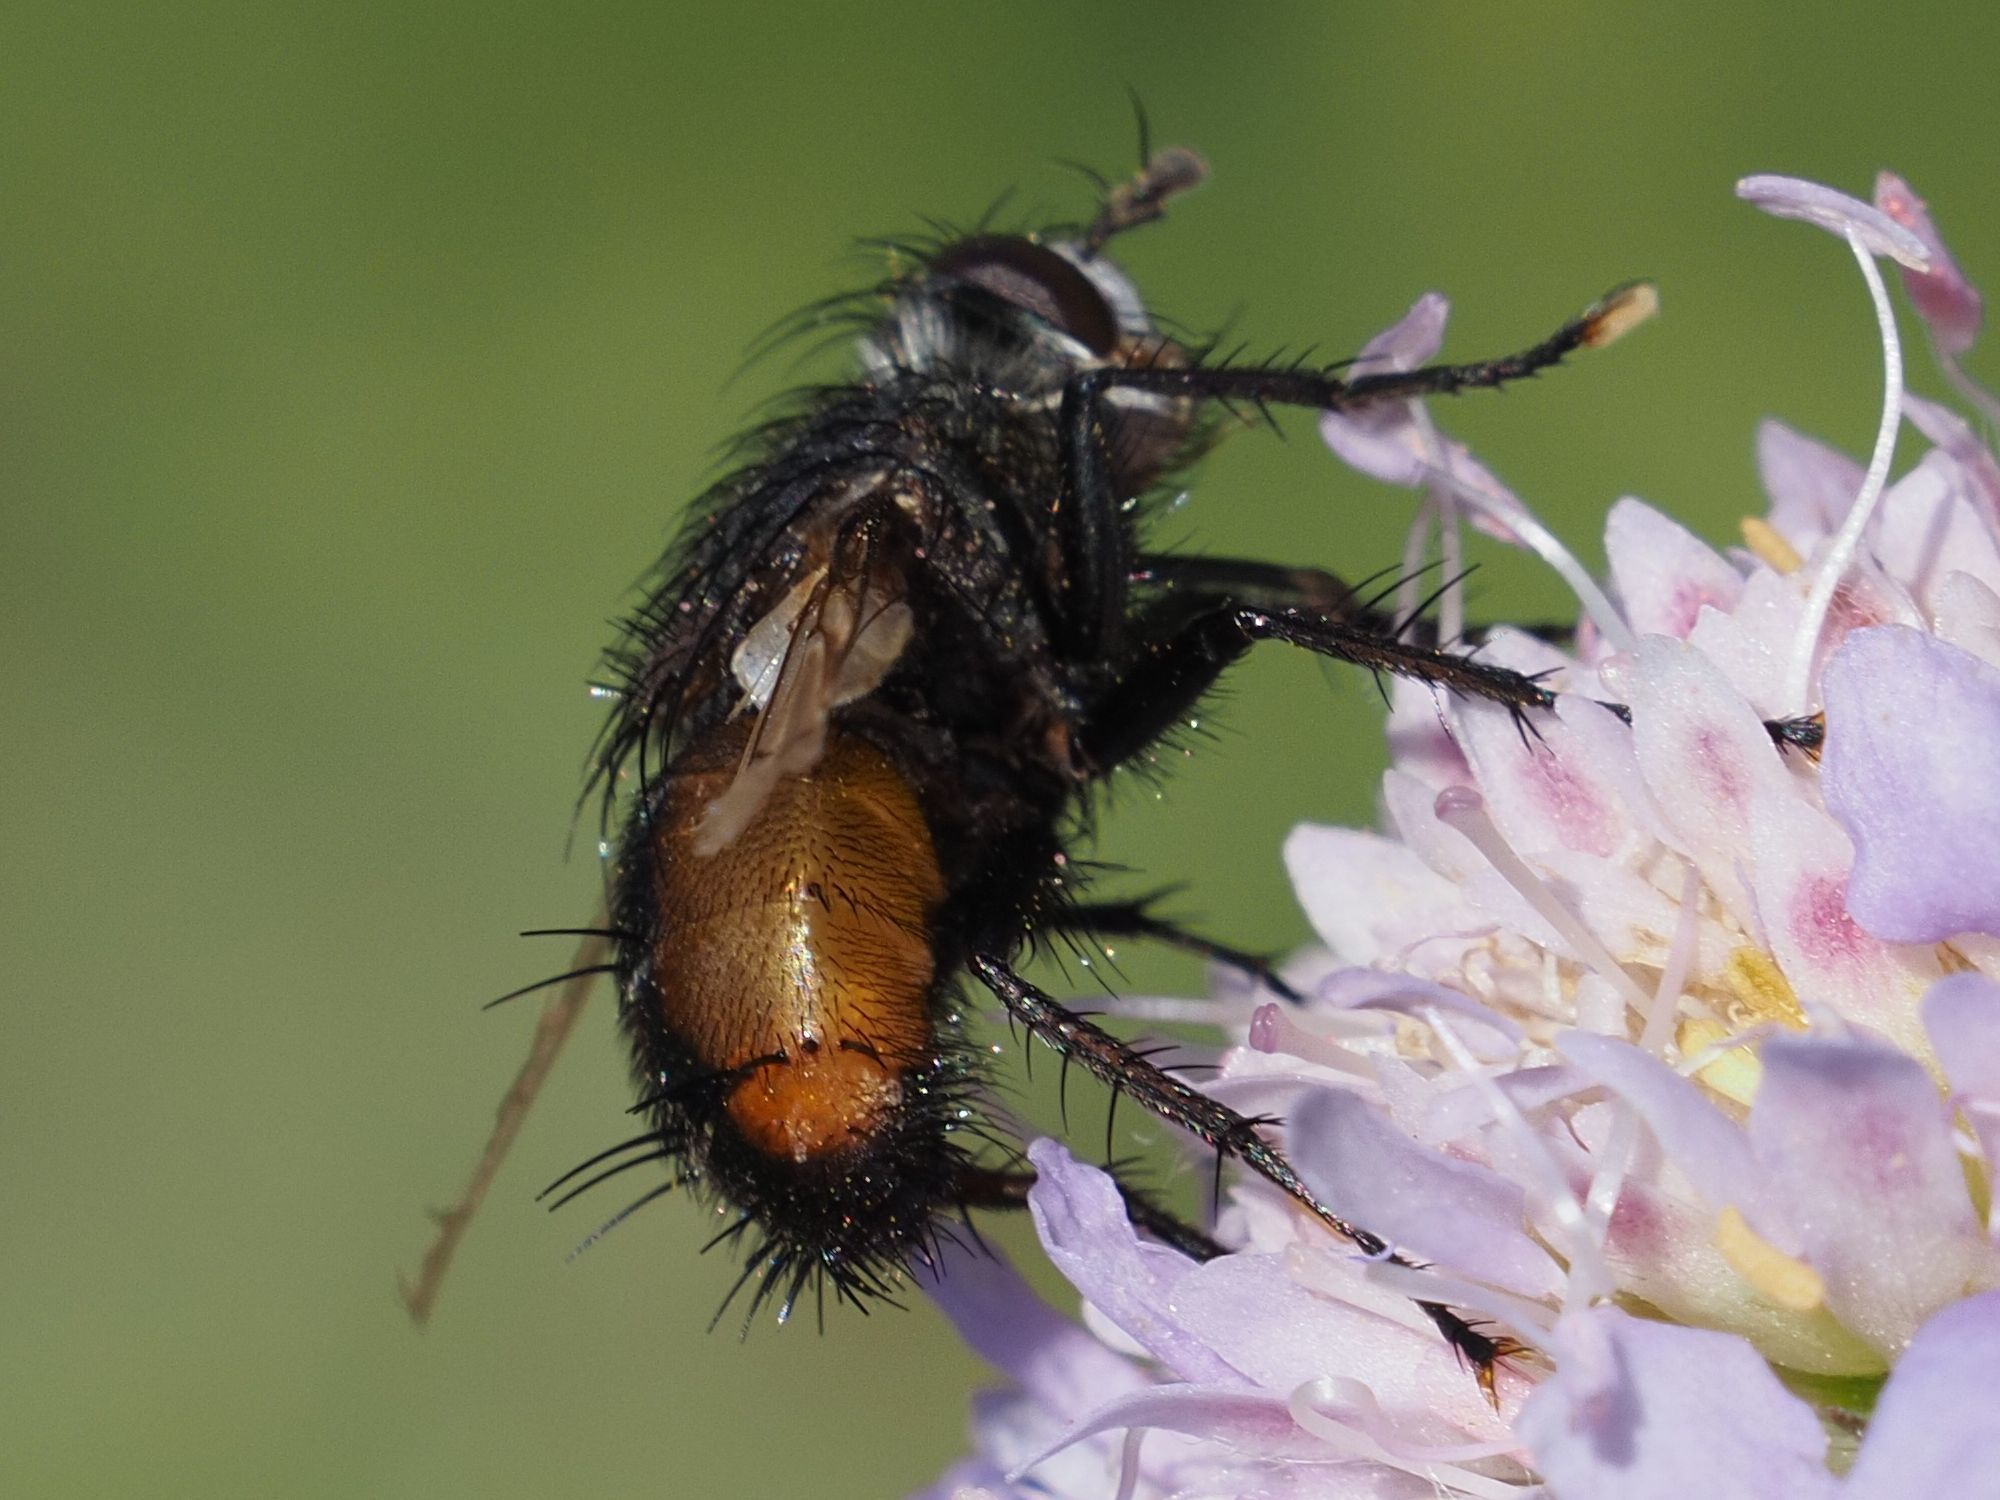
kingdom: Animalia
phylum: Arthropoda
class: Insecta
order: Diptera
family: Tachinidae
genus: Peleteria
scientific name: Peleteria rubescens
